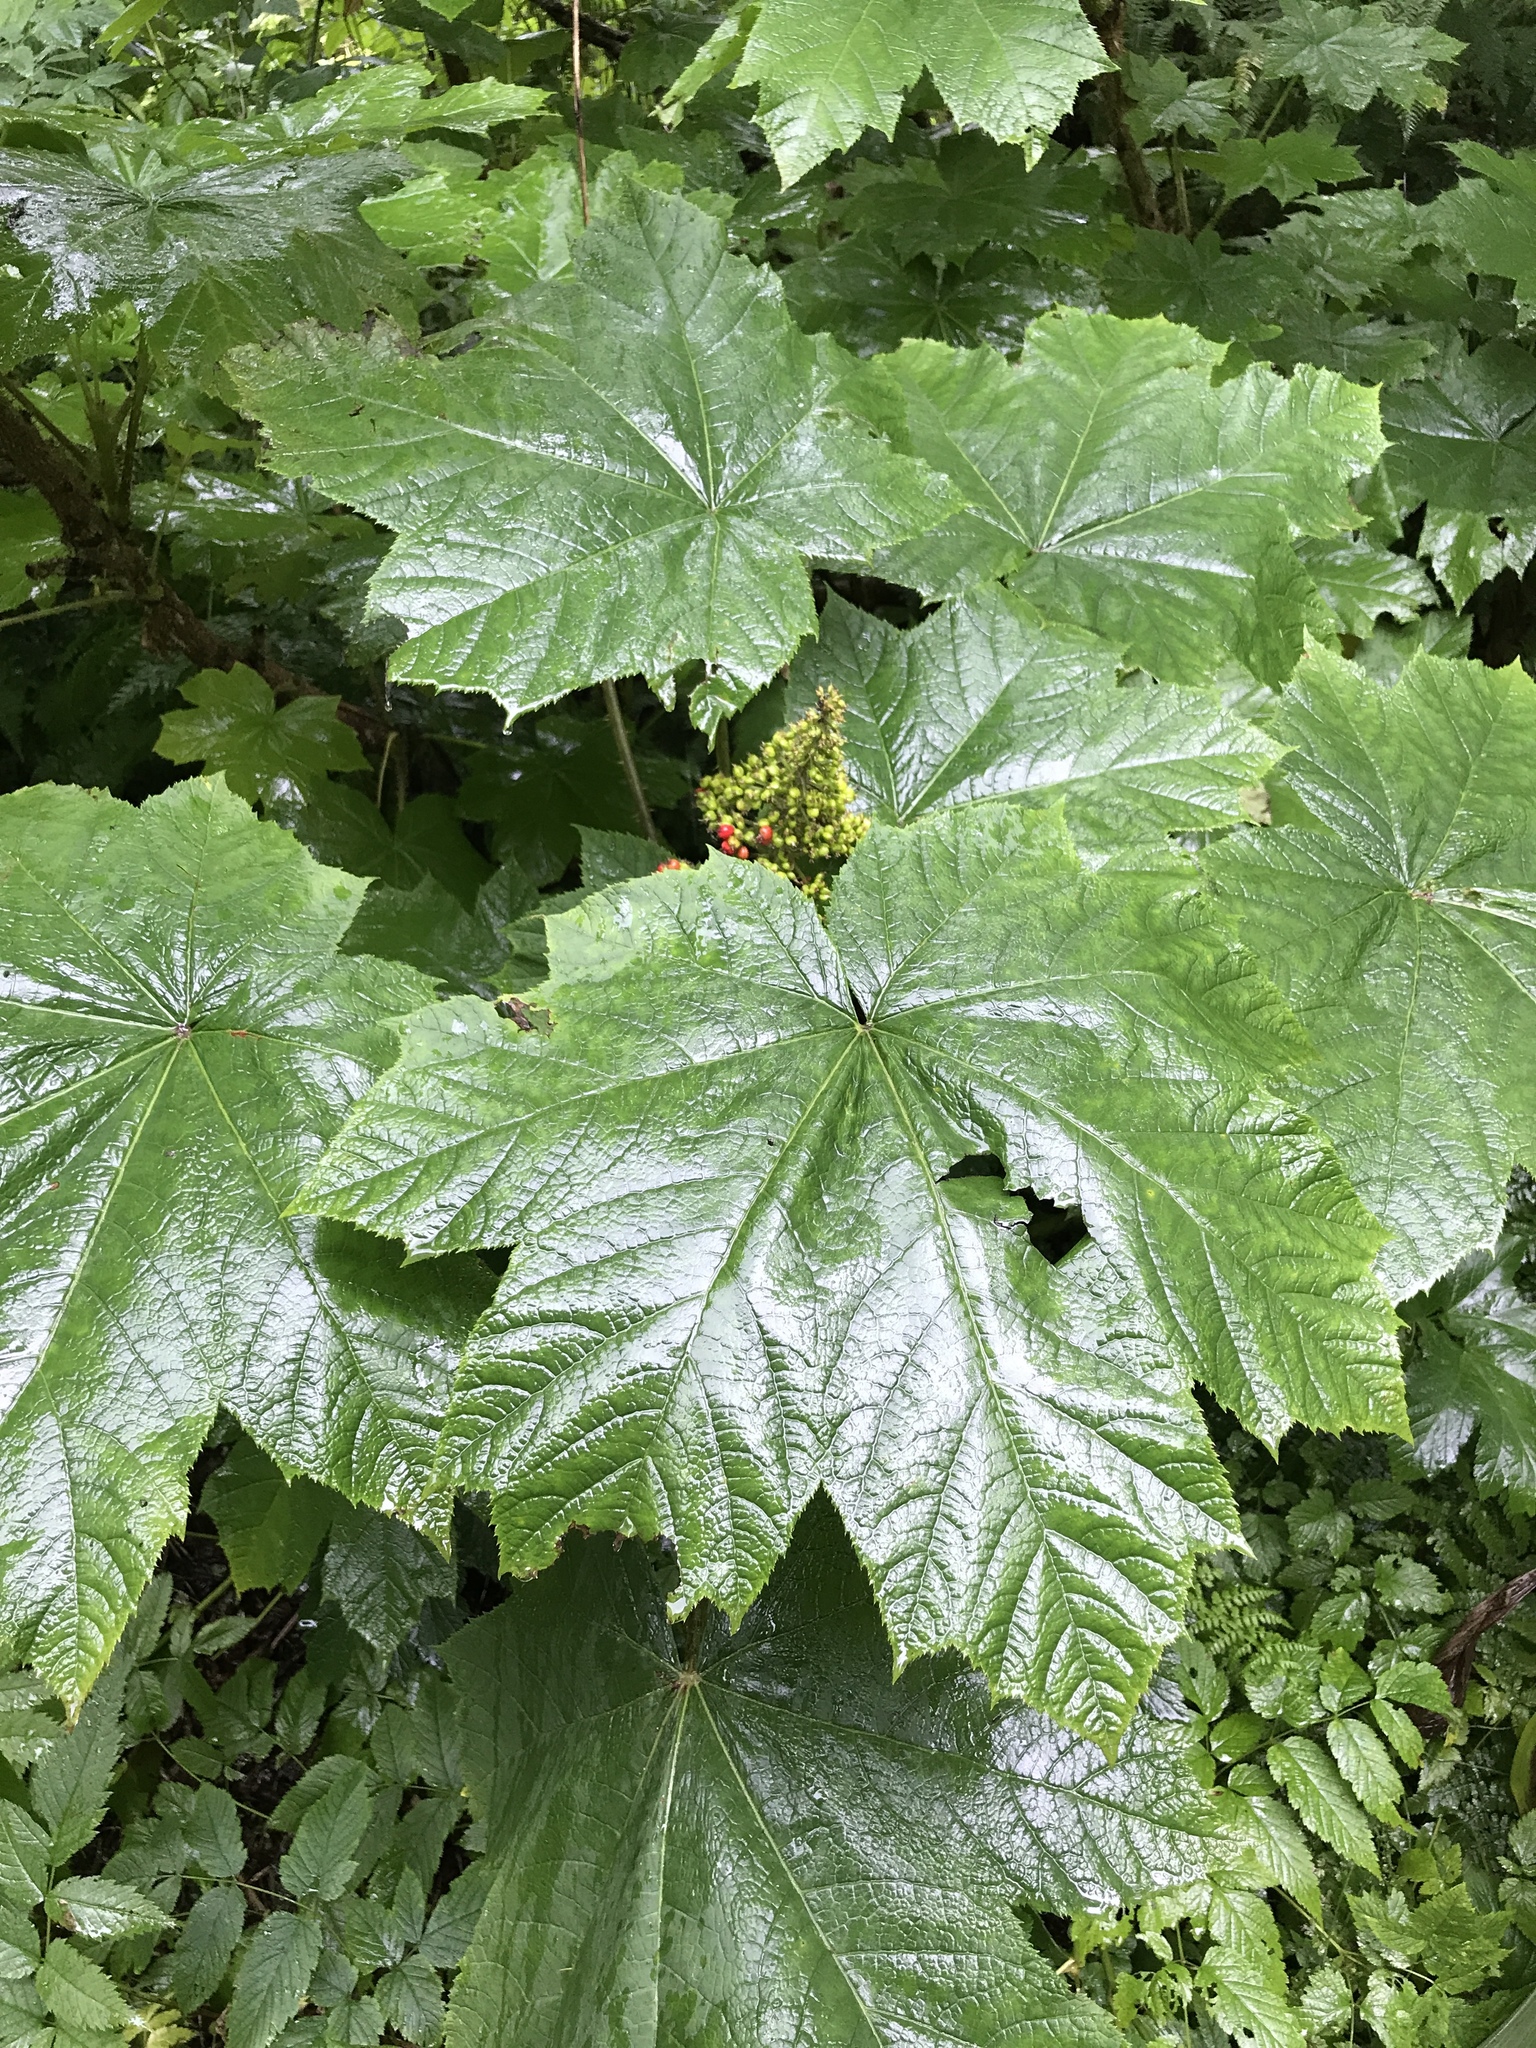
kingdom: Plantae
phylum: Tracheophyta
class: Magnoliopsida
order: Apiales
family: Araliaceae
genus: Oplopanax
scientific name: Oplopanax horridus
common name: Devil's walking-stick
